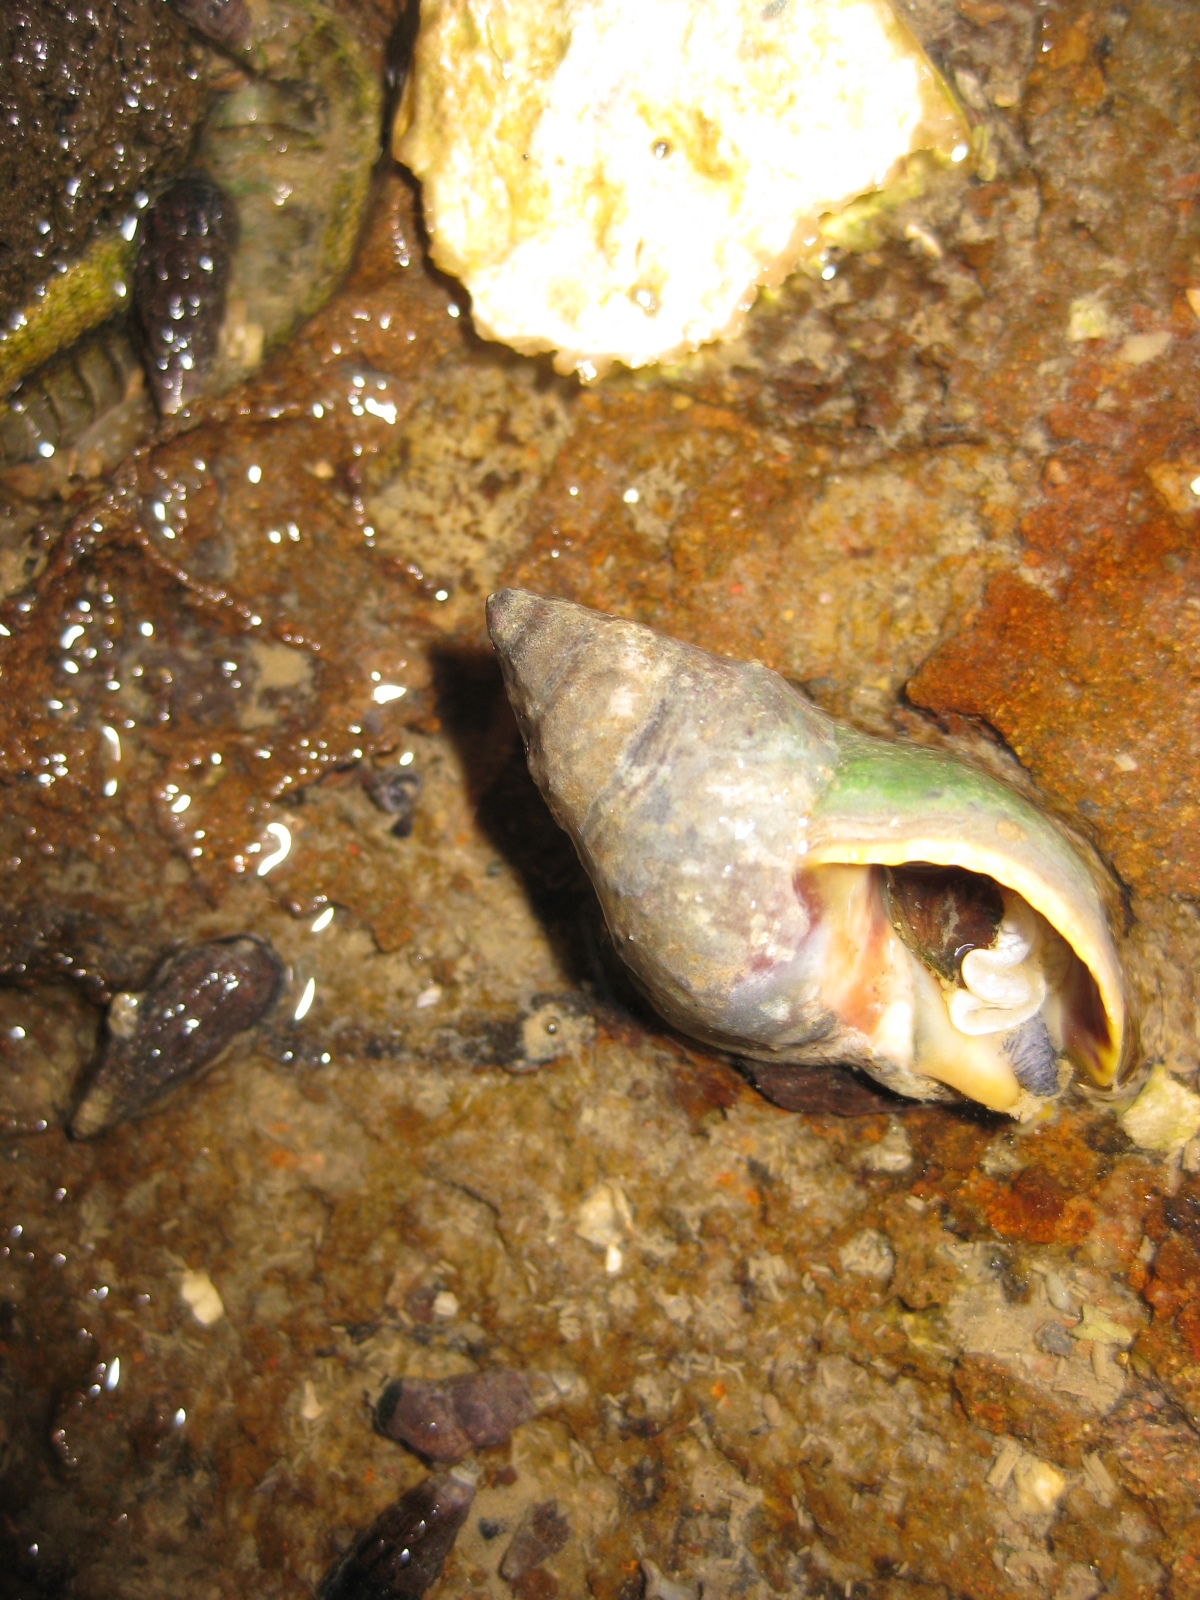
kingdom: Animalia
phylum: Mollusca
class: Gastropoda
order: Neogastropoda
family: Cominellidae
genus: Cominella
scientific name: Cominella maculosa
